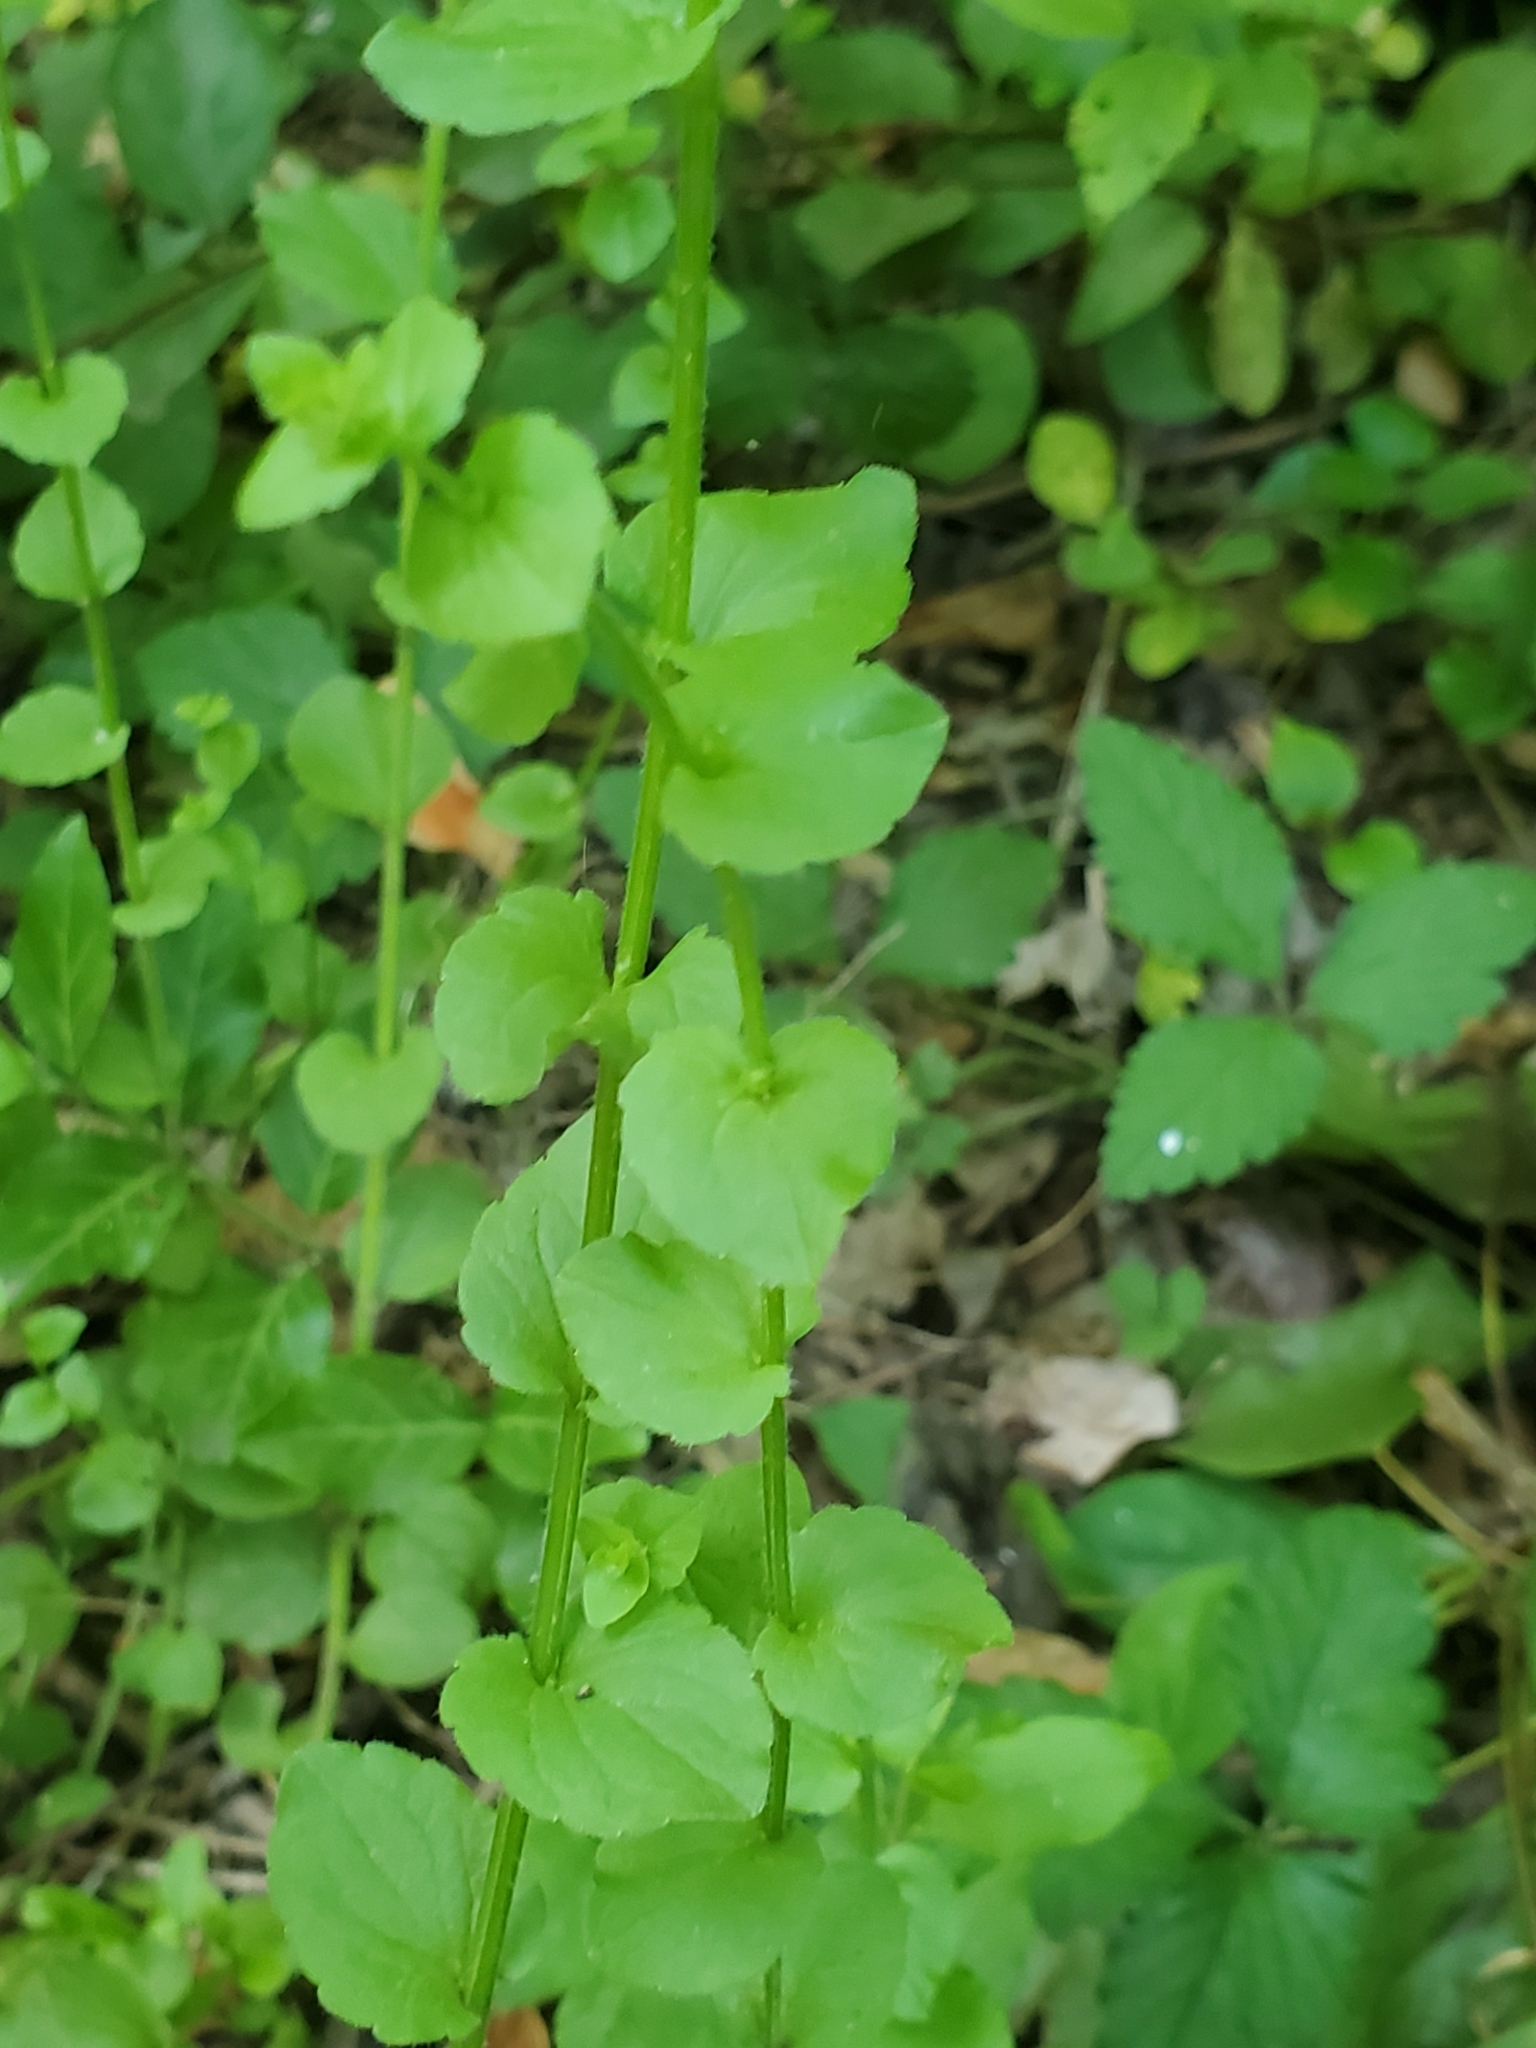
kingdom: Plantae
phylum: Tracheophyta
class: Magnoliopsida
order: Asterales
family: Campanulaceae
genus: Triodanis
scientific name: Triodanis perfoliata
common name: Clasping venus' looking-glass
